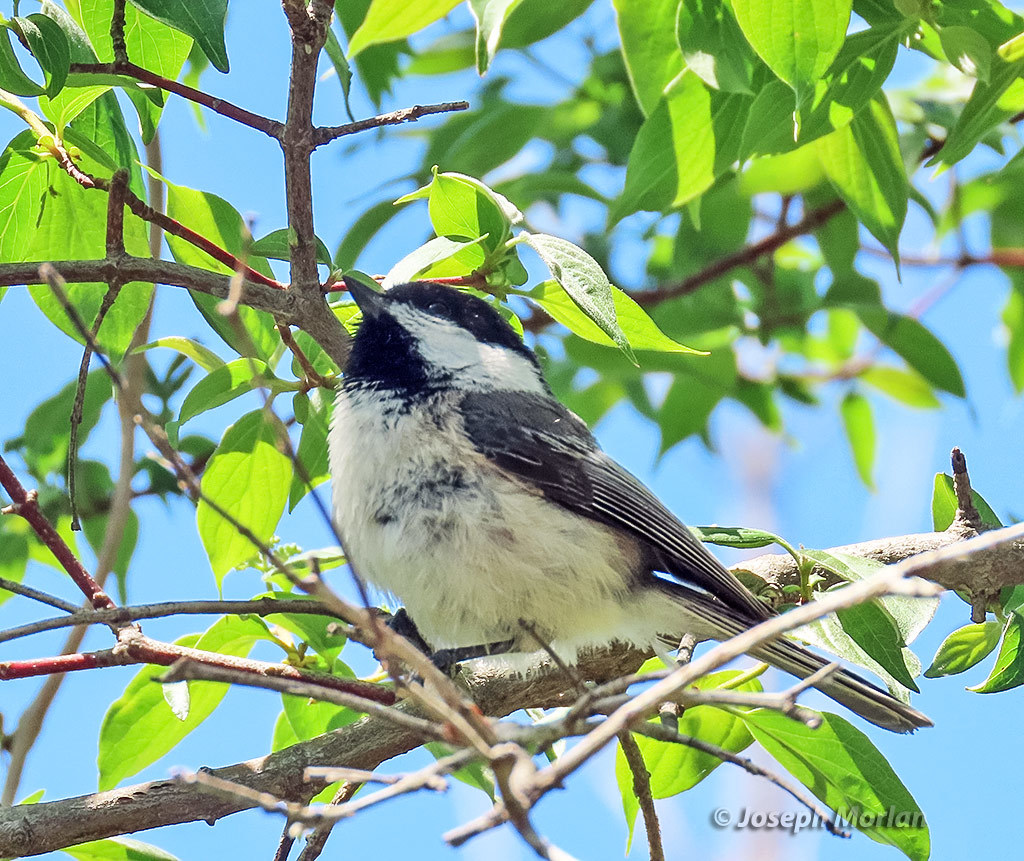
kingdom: Animalia
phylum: Chordata
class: Aves
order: Passeriformes
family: Paridae
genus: Poecile
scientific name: Poecile atricapillus
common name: Black-capped chickadee
